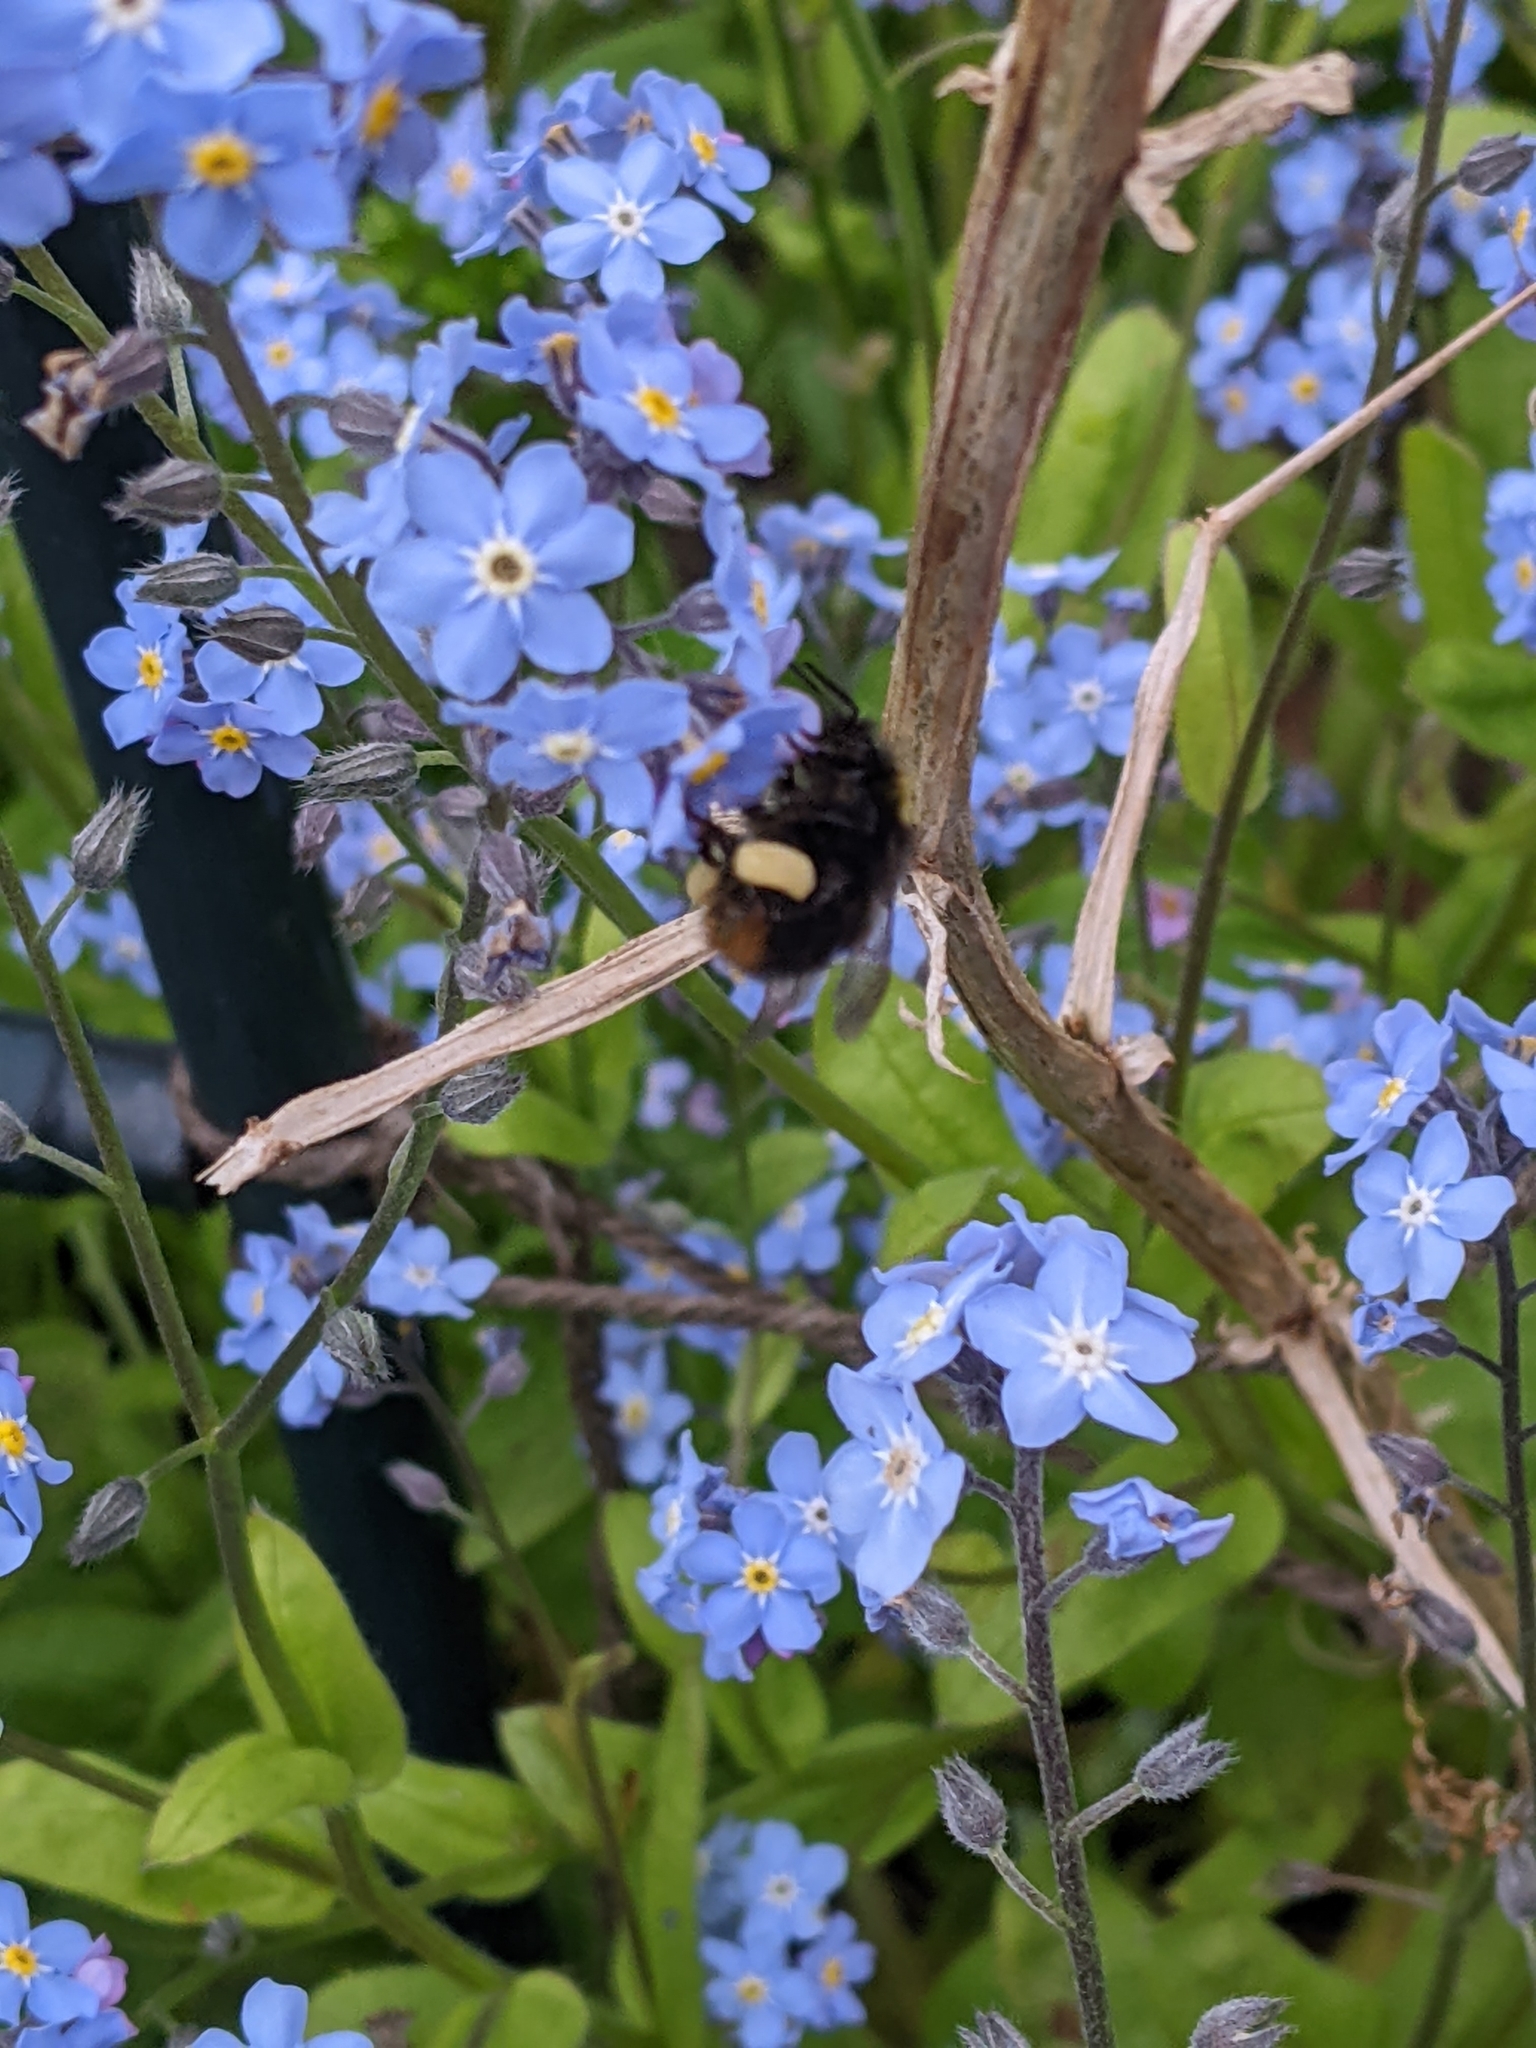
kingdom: Plantae
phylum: Tracheophyta
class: Magnoliopsida
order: Boraginales
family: Boraginaceae
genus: Myosotis
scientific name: Myosotis sylvatica
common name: Wood forget-me-not
